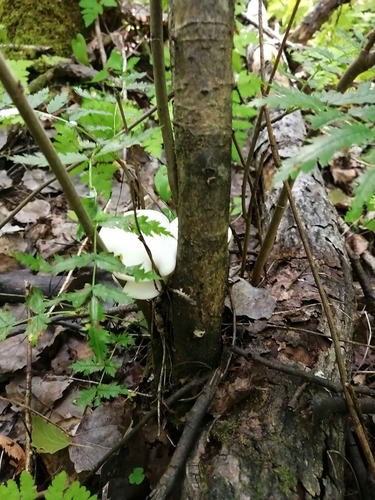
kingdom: Fungi
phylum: Basidiomycota
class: Agaricomycetes
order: Agaricales
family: Pleurotaceae
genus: Pleurotus
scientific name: Pleurotus pulmonarius
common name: Pale oyster
